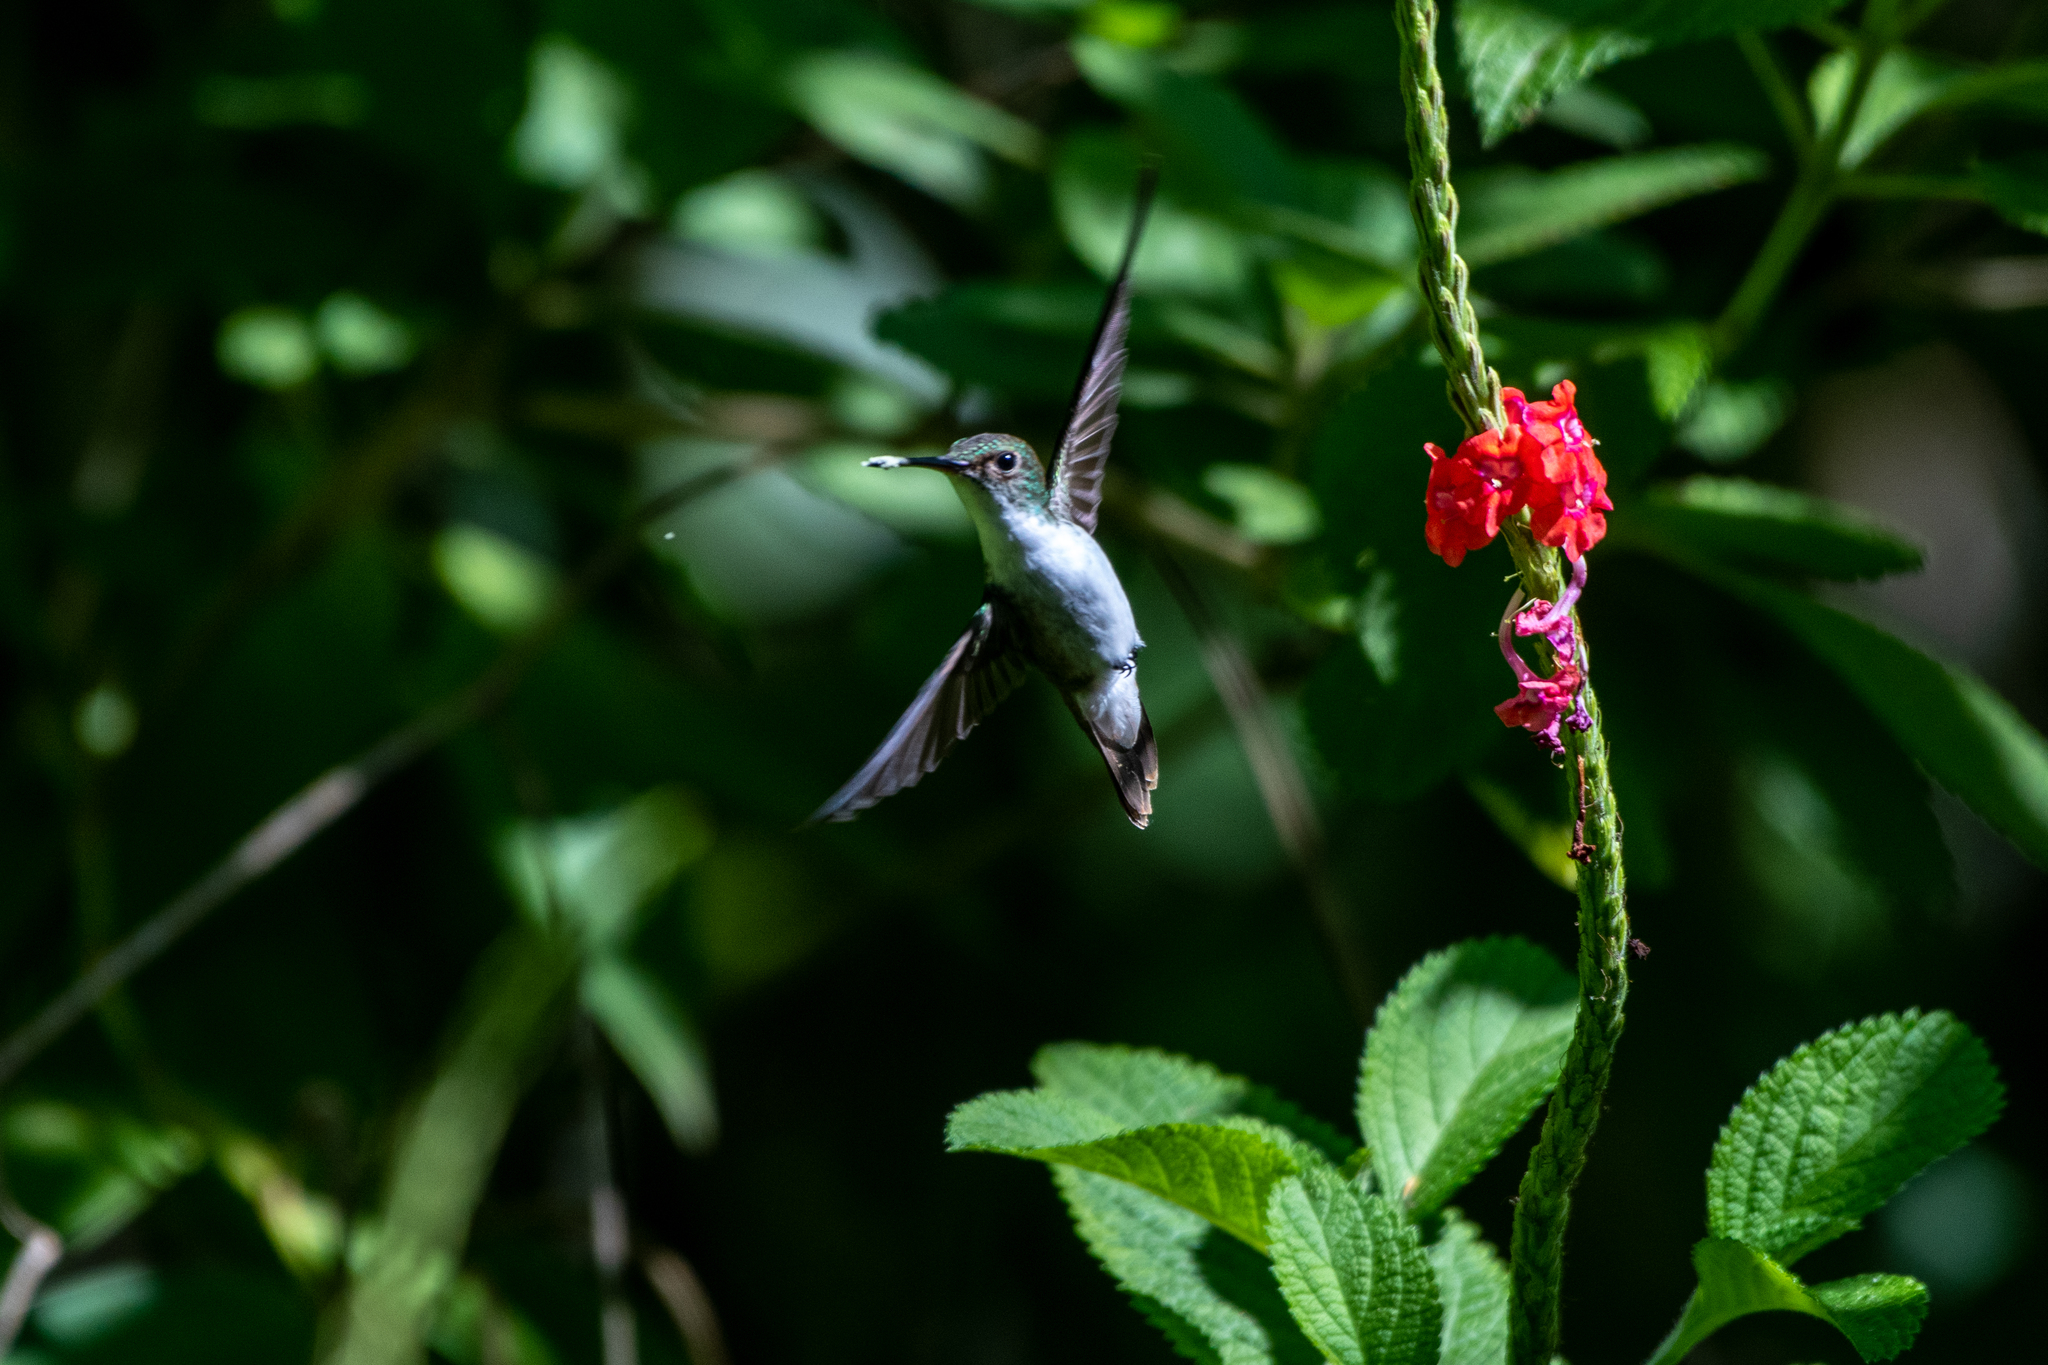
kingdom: Animalia
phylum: Chordata
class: Aves
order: Apodiformes
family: Trochilidae
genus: Chlorestes
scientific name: Chlorestes candida
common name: White-bellied emerald
